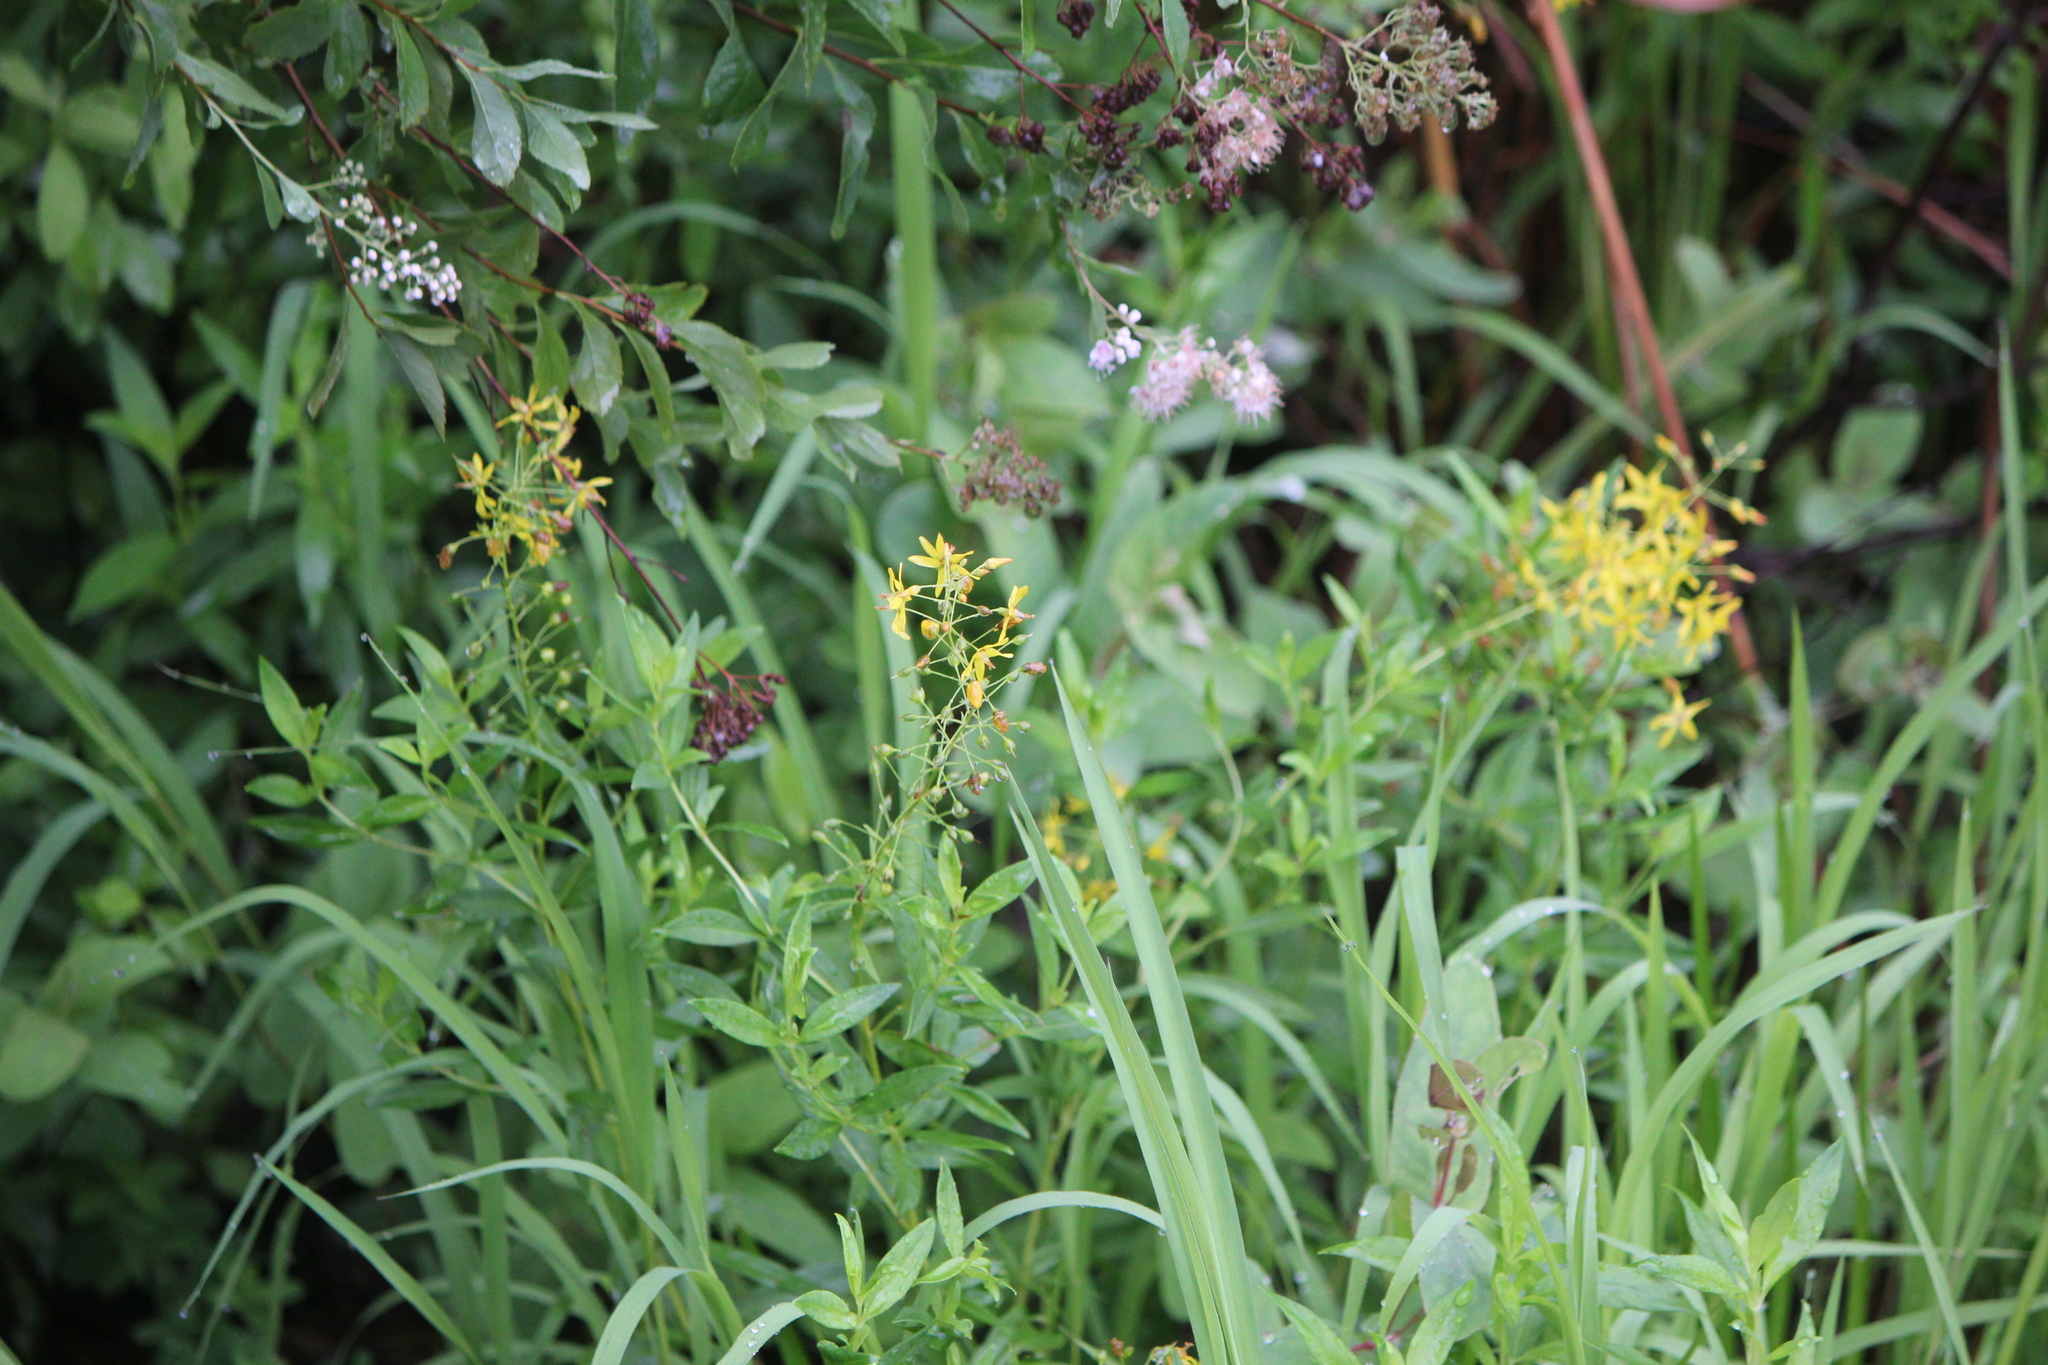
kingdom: Plantae
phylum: Tracheophyta
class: Magnoliopsida
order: Ericales
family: Primulaceae
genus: Lysimachia
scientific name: Lysimachia terrestris
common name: Lake loosestrife
